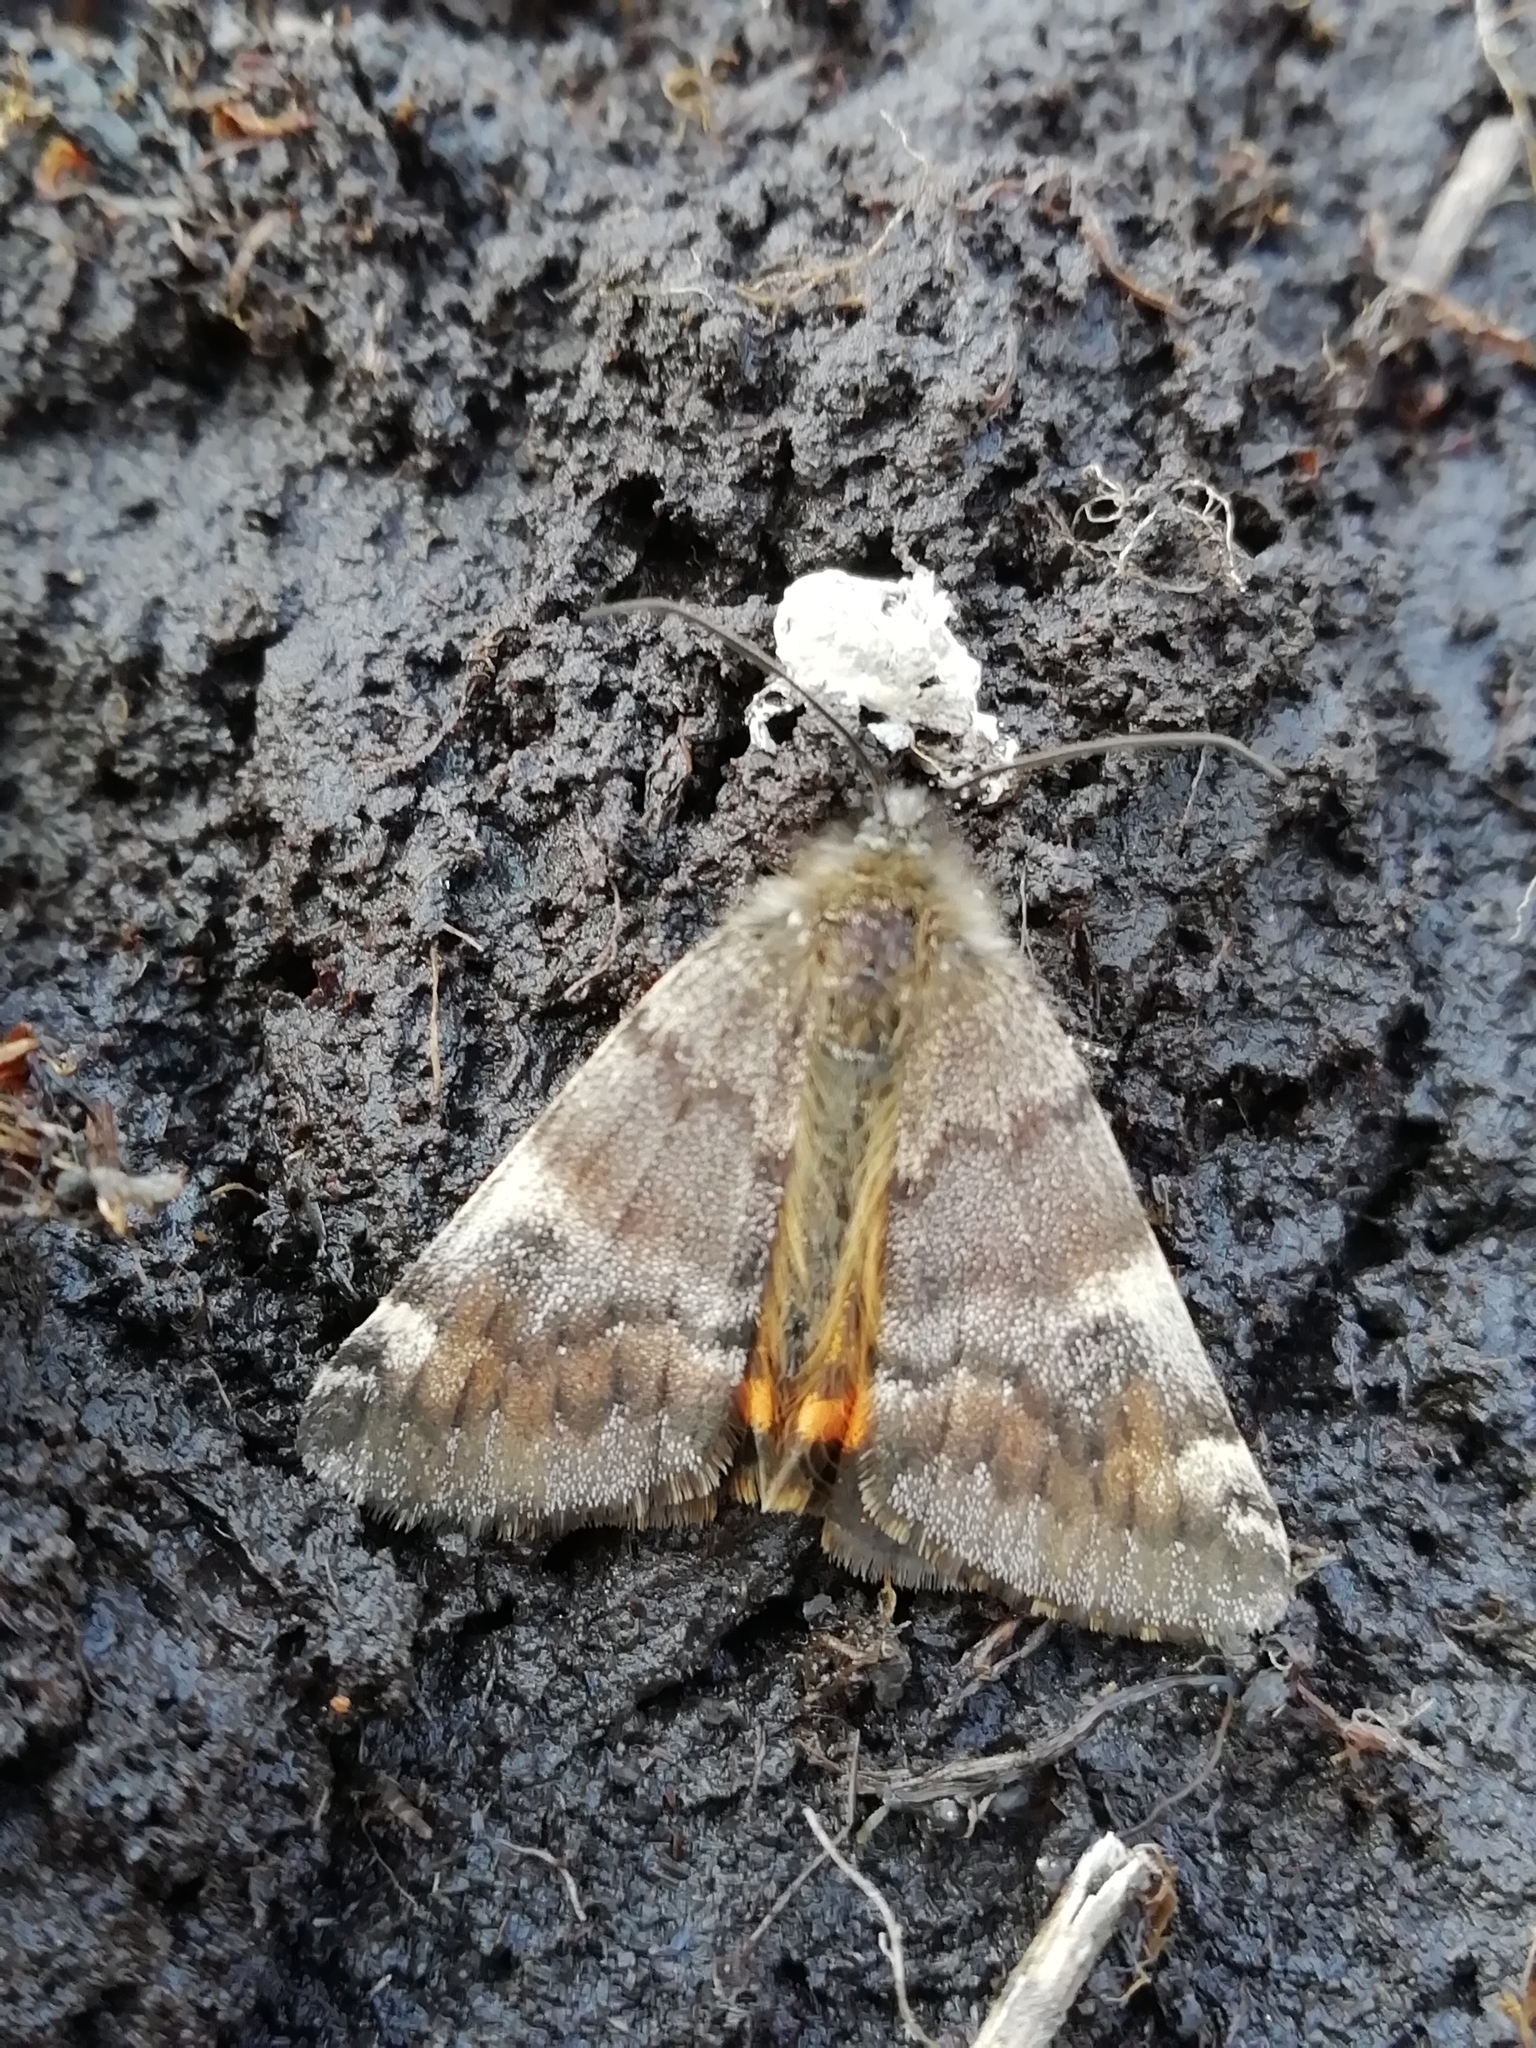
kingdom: Animalia
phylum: Arthropoda
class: Insecta
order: Lepidoptera
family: Geometridae
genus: Archiearis
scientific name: Archiearis parthenias
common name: Orange underwing
